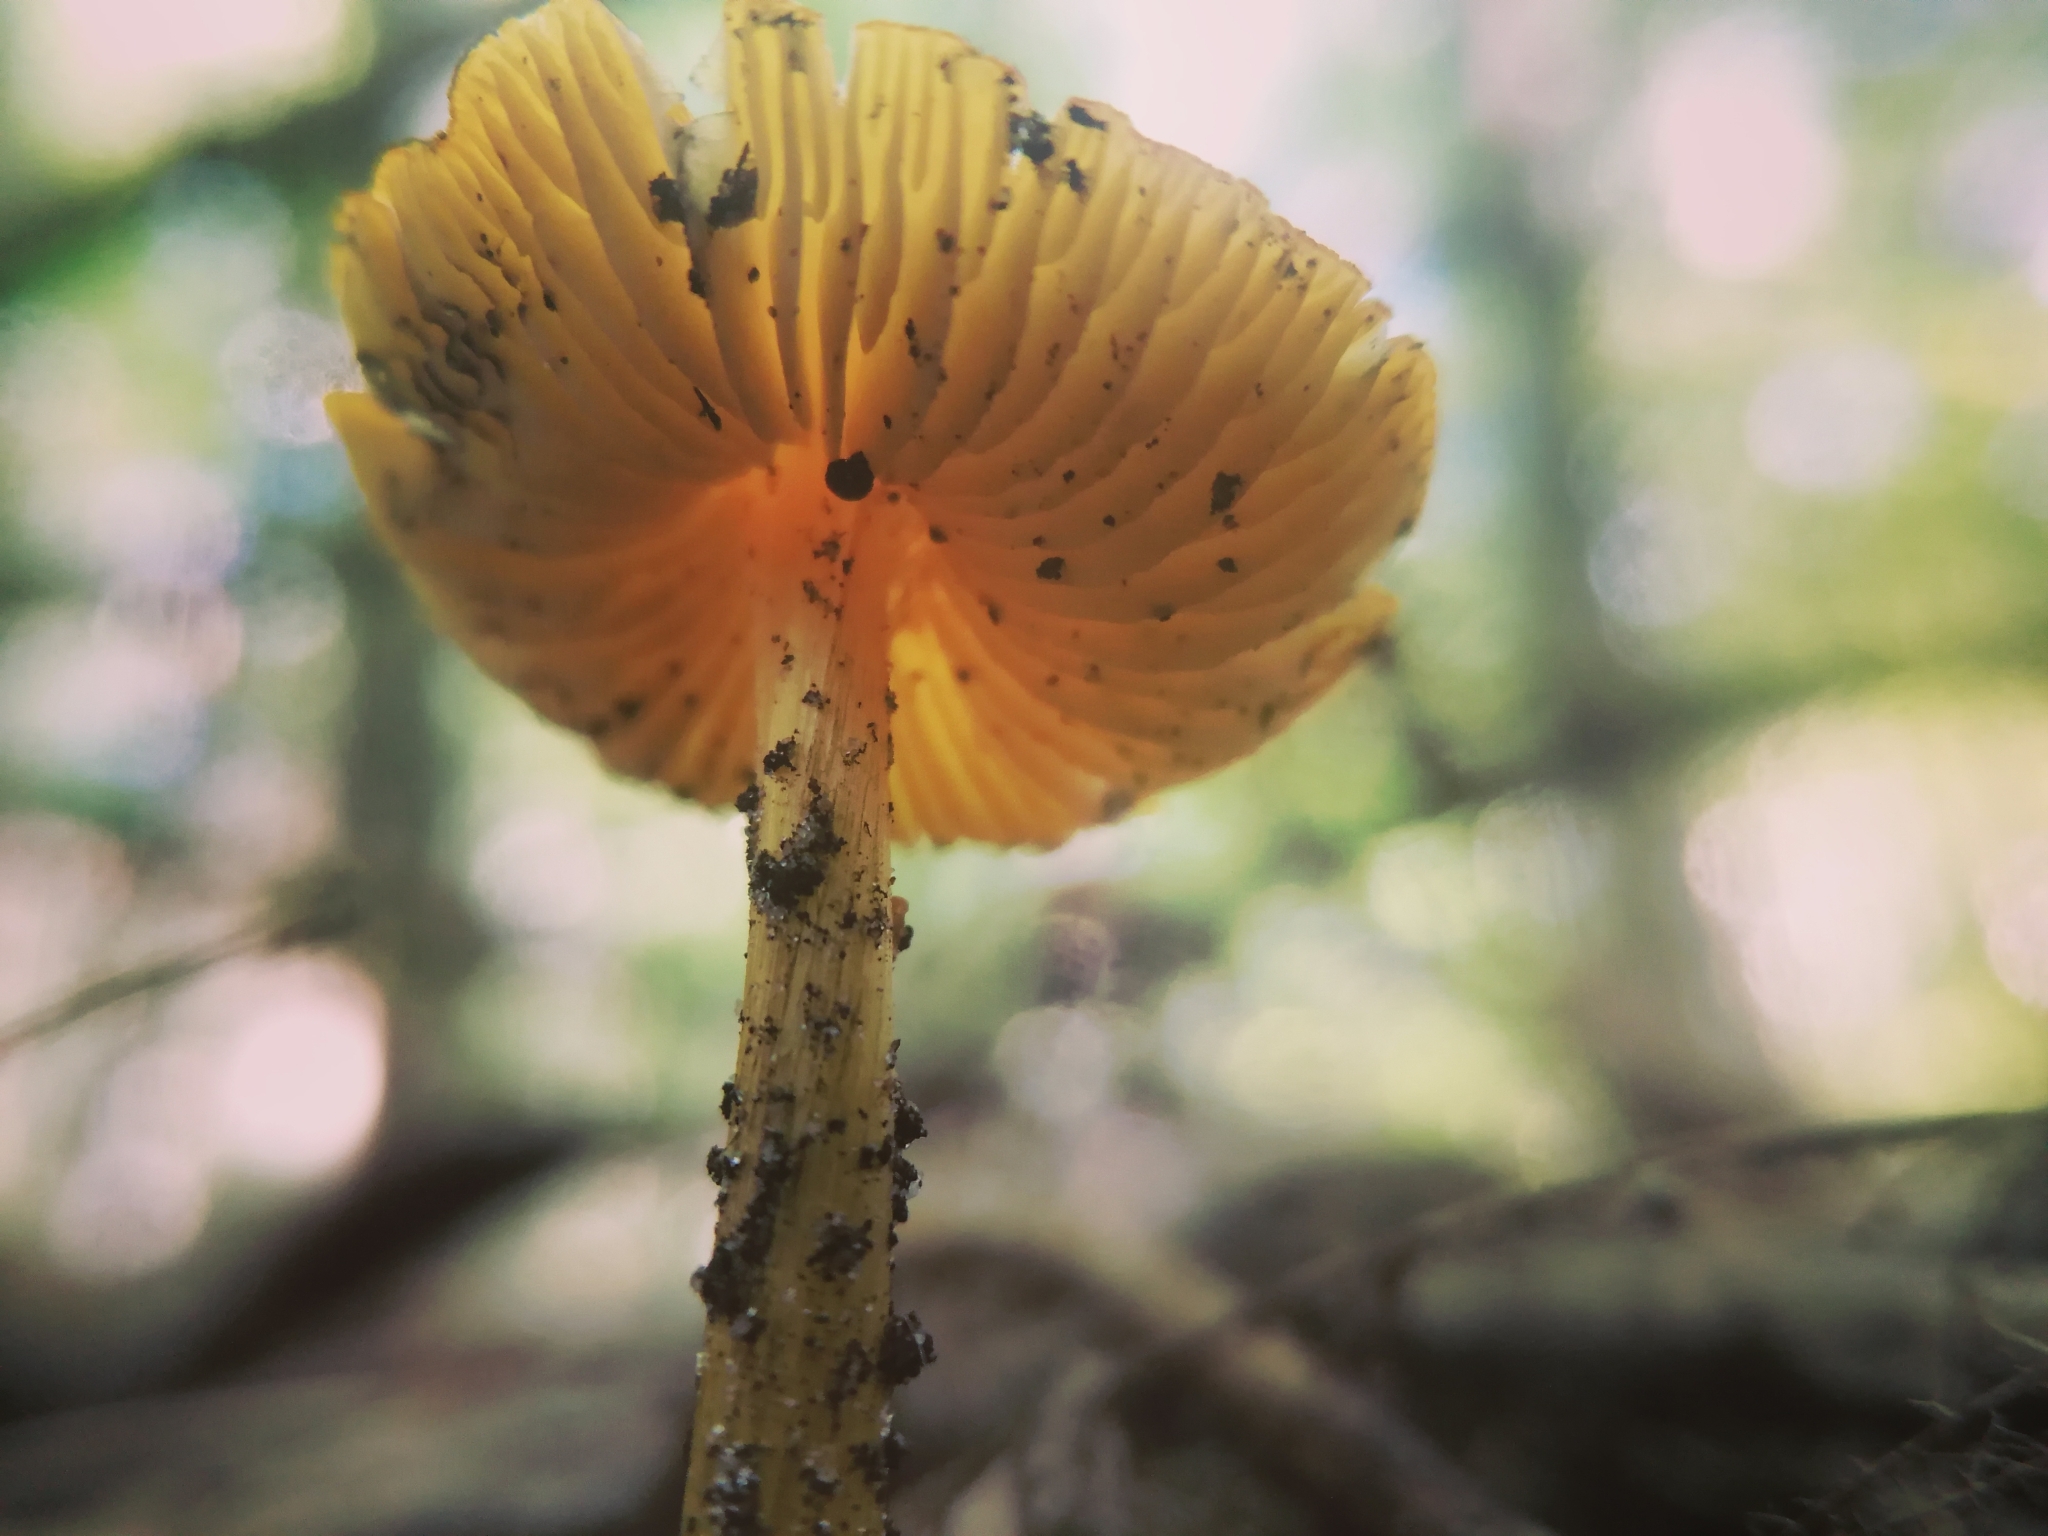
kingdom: Fungi
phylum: Basidiomycota
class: Agaricomycetes
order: Agaricales
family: Hygrophoraceae
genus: Hygrocybe
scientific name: Hygrocybe conica
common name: Blackening wax-cap
